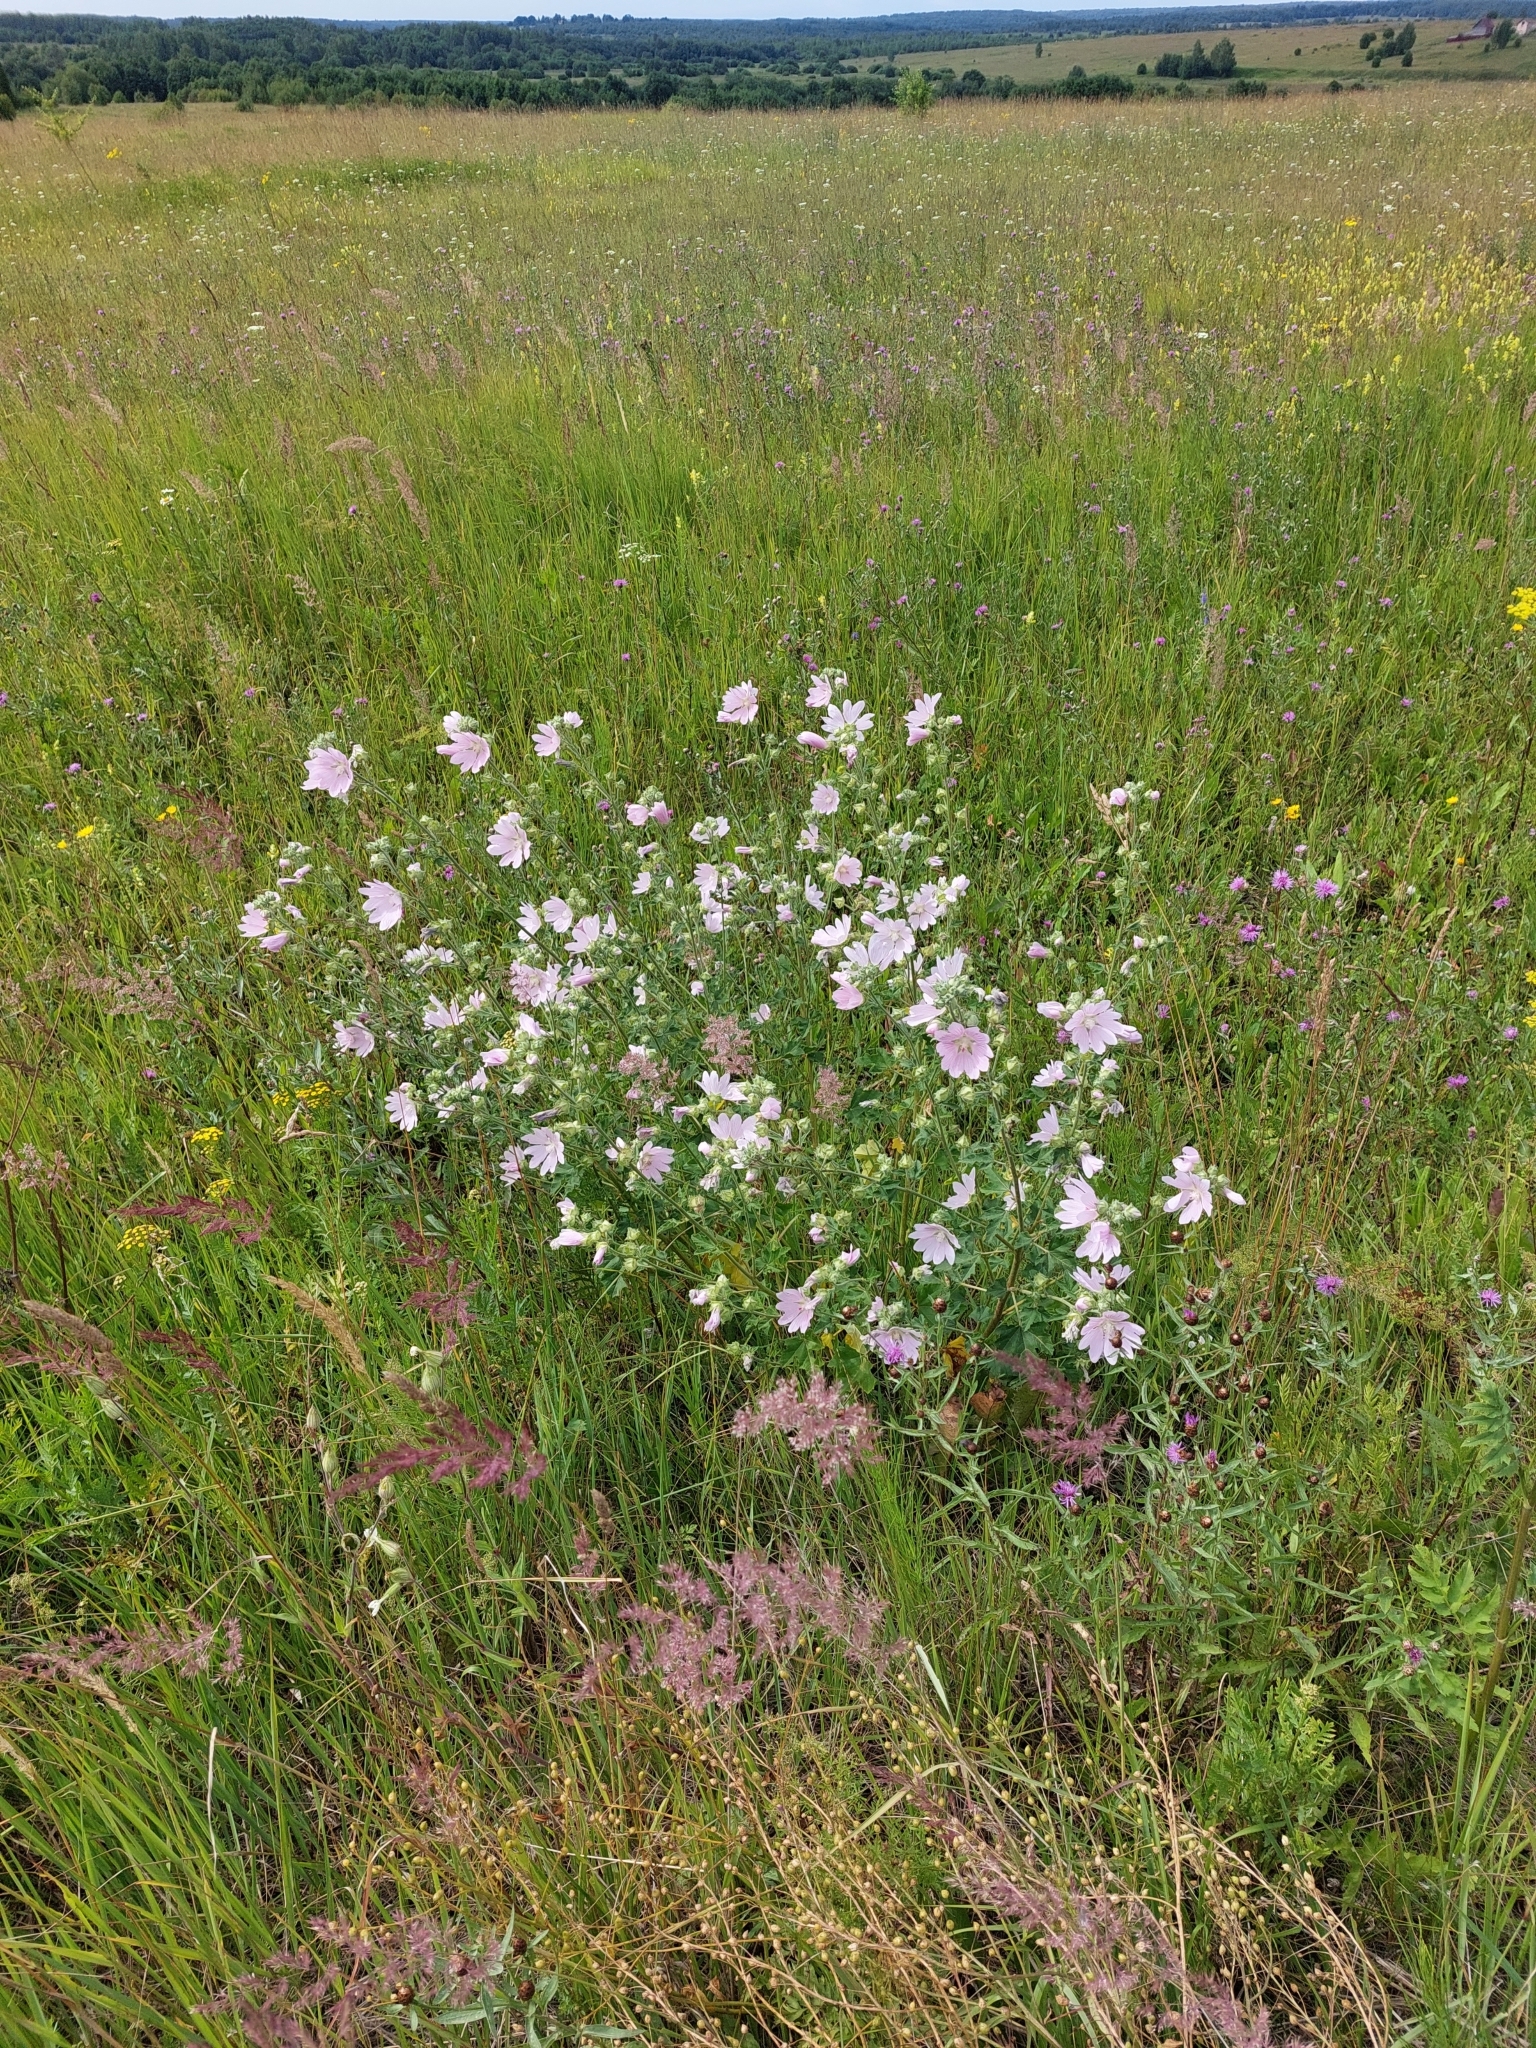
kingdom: Plantae
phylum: Tracheophyta
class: Magnoliopsida
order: Malvales
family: Malvaceae
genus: Malva
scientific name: Malva thuringiaca
